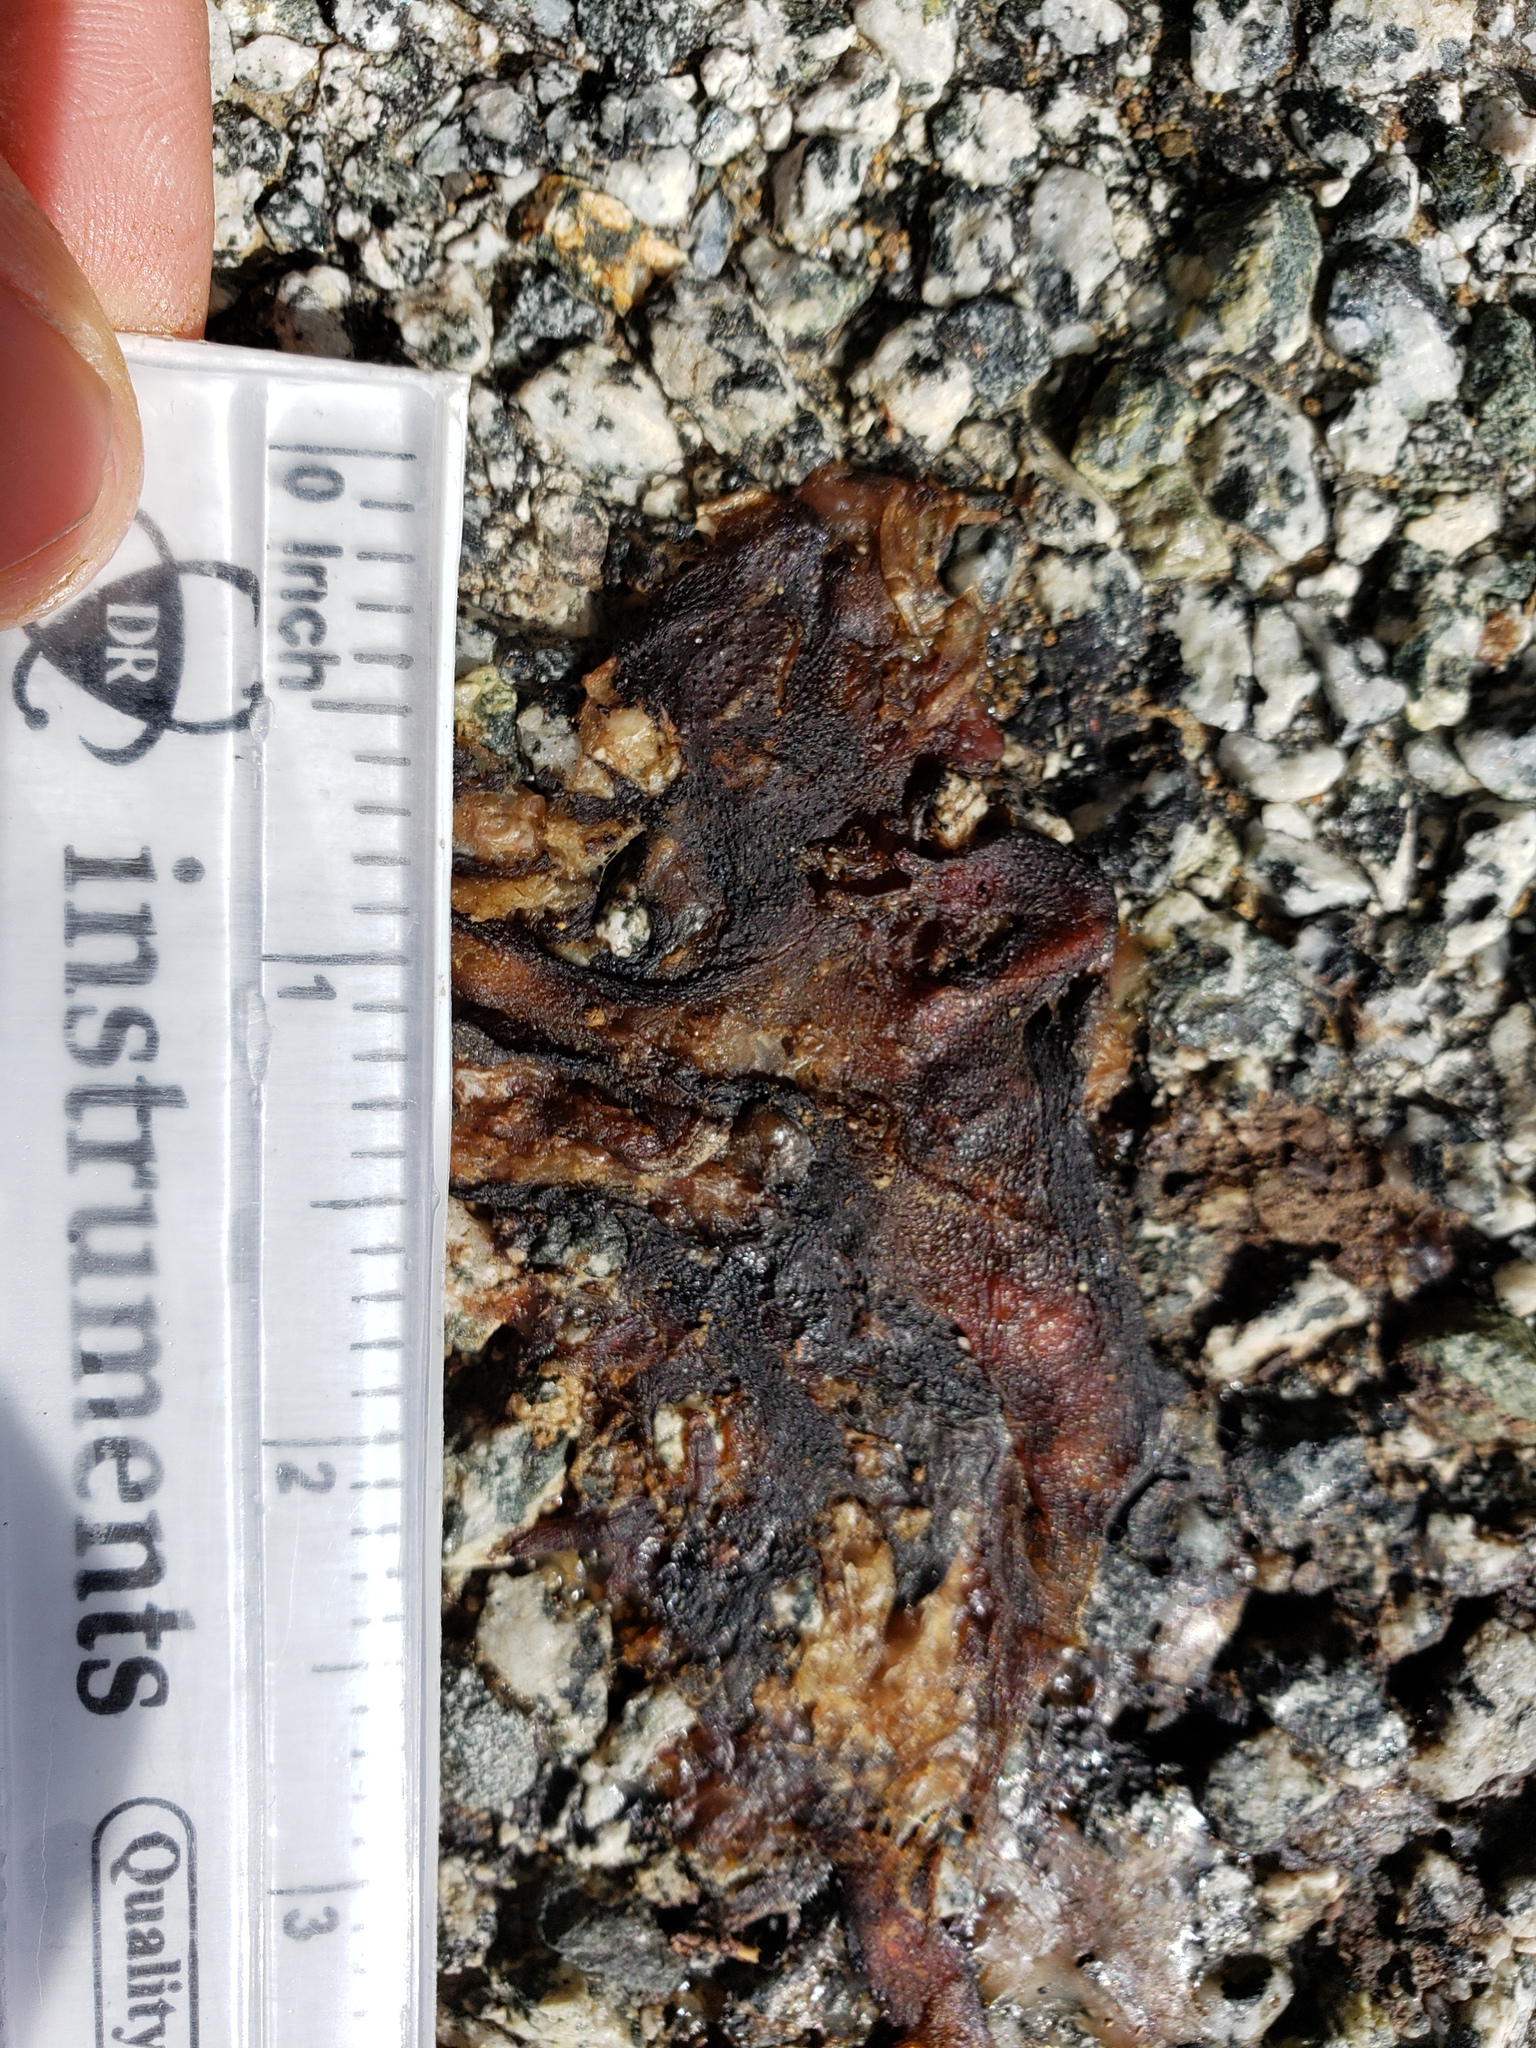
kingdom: Animalia
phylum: Chordata
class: Amphibia
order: Caudata
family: Salamandridae
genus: Taricha
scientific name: Taricha
